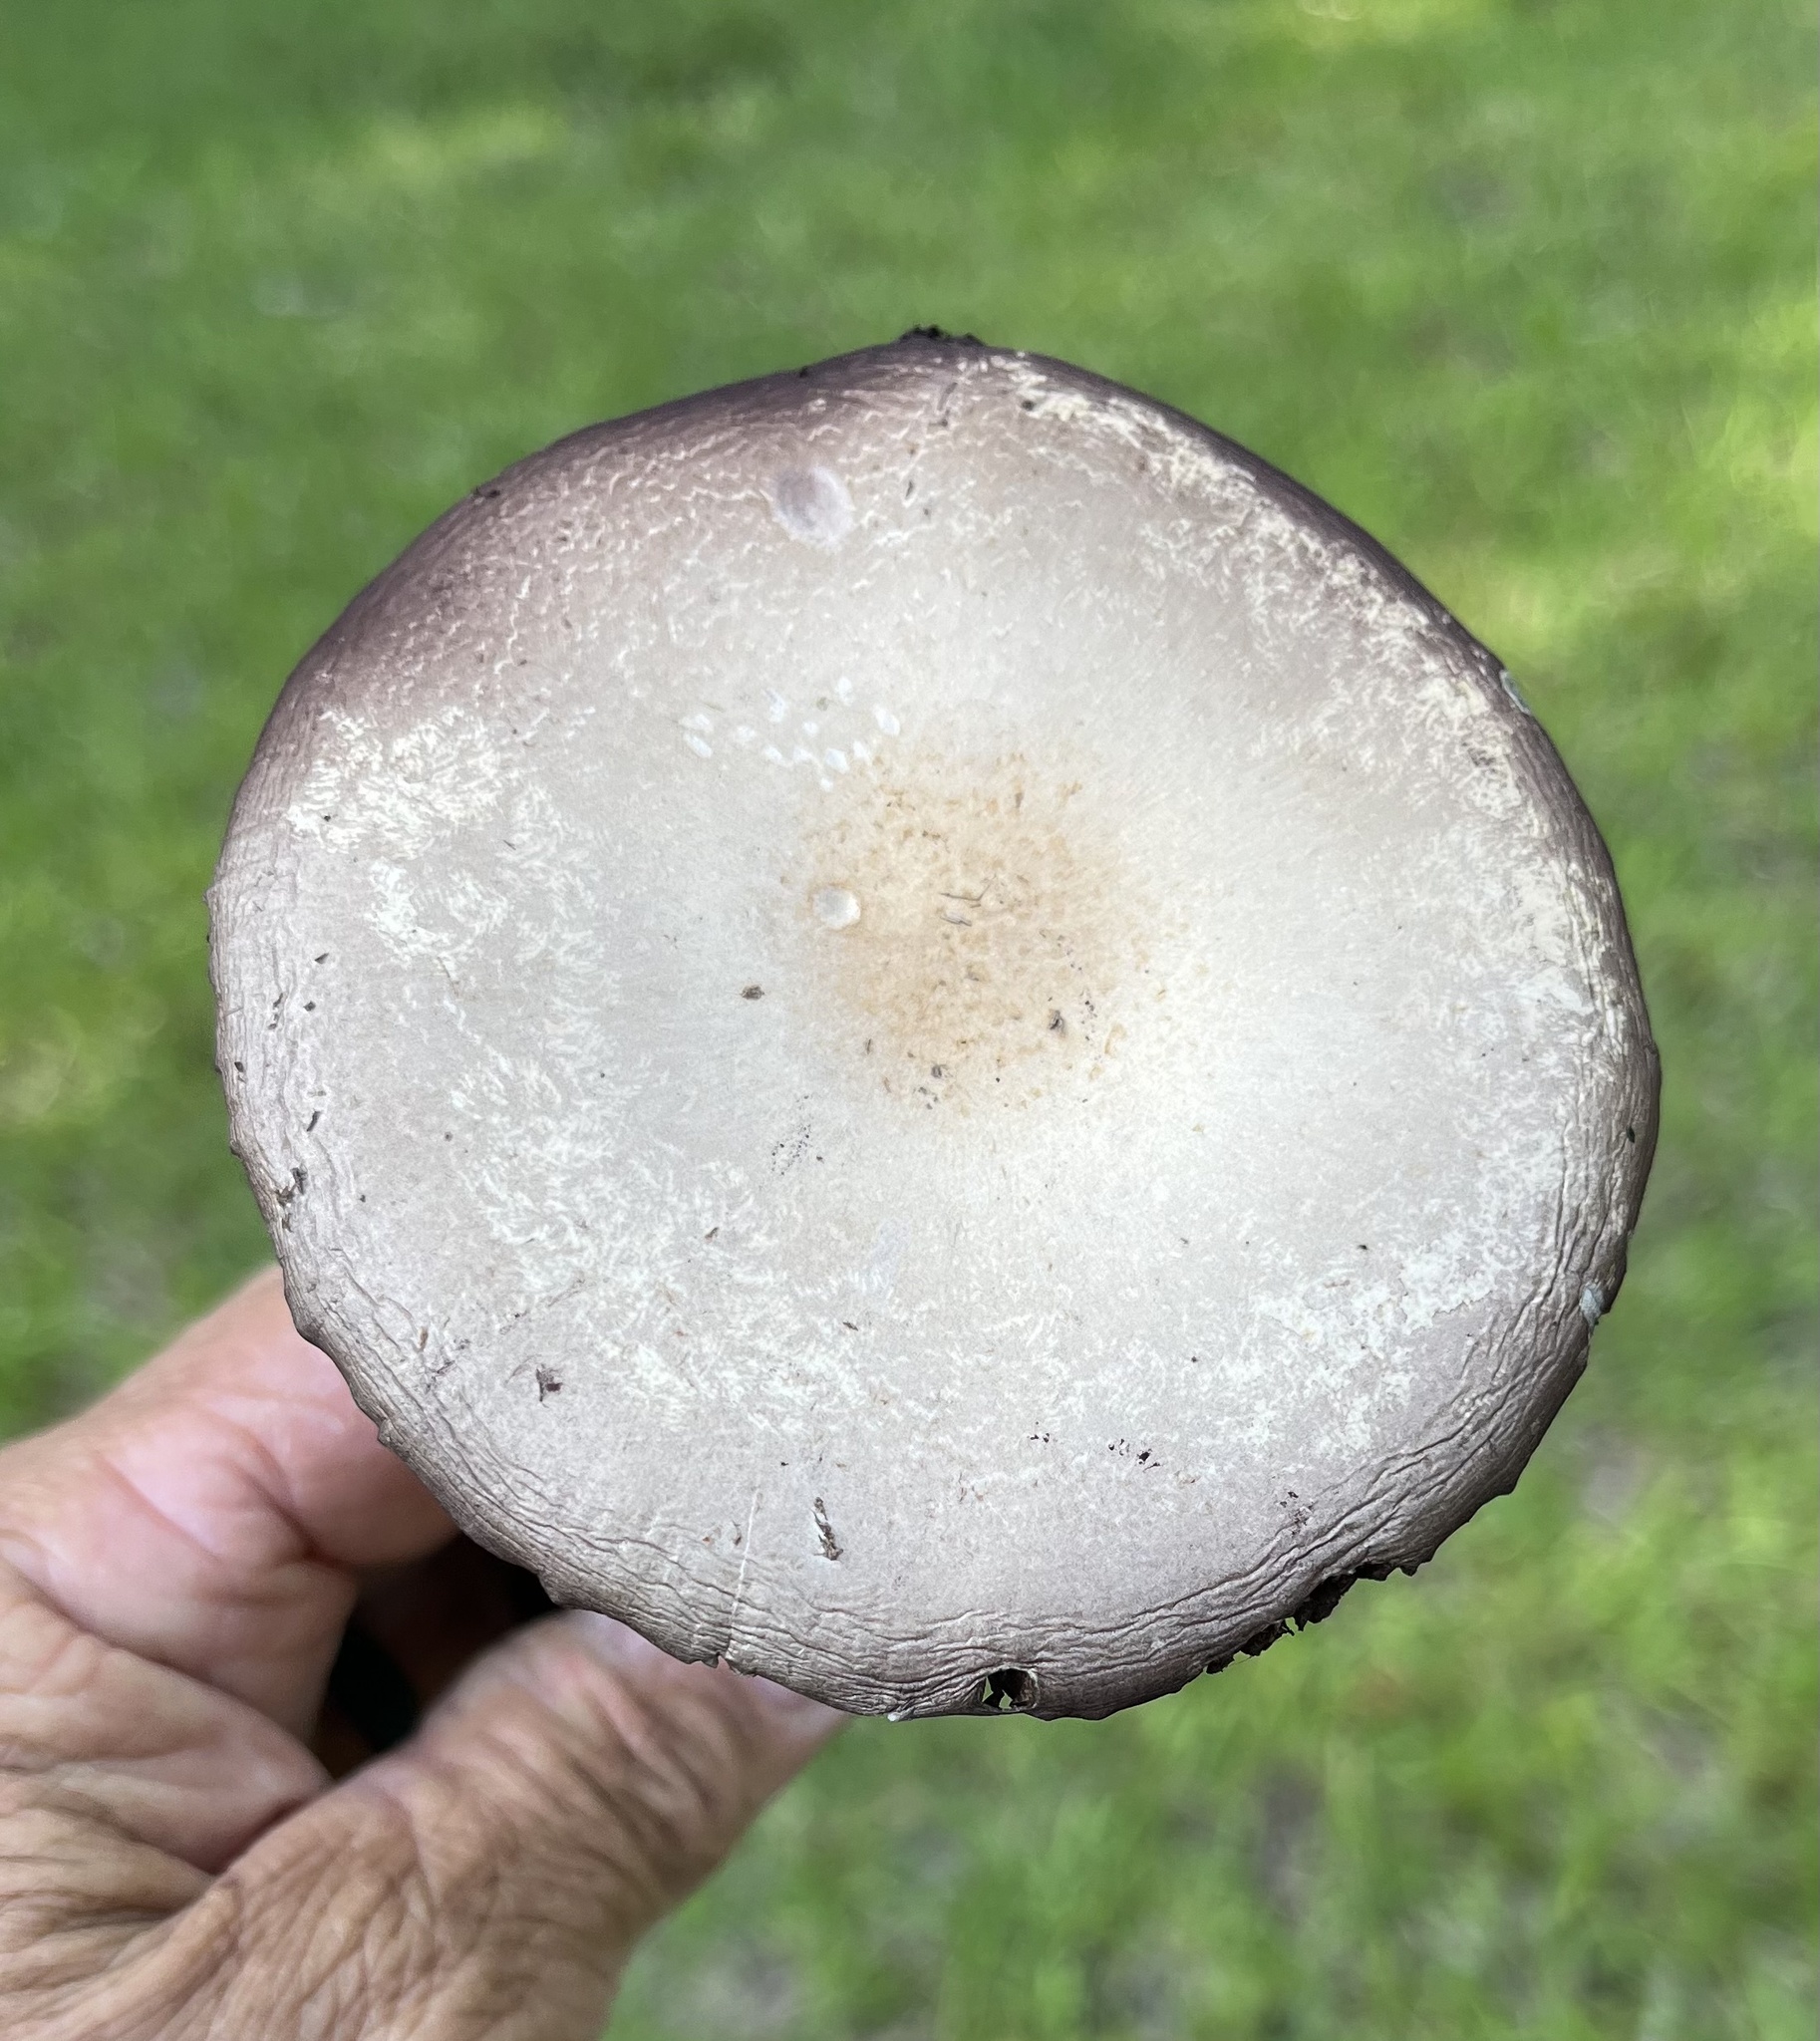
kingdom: Fungi
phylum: Basidiomycota
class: Agaricomycetes
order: Agaricales
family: Hymenogastraceae
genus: Psilocybe
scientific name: Psilocybe cubensis
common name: Golden brownie
